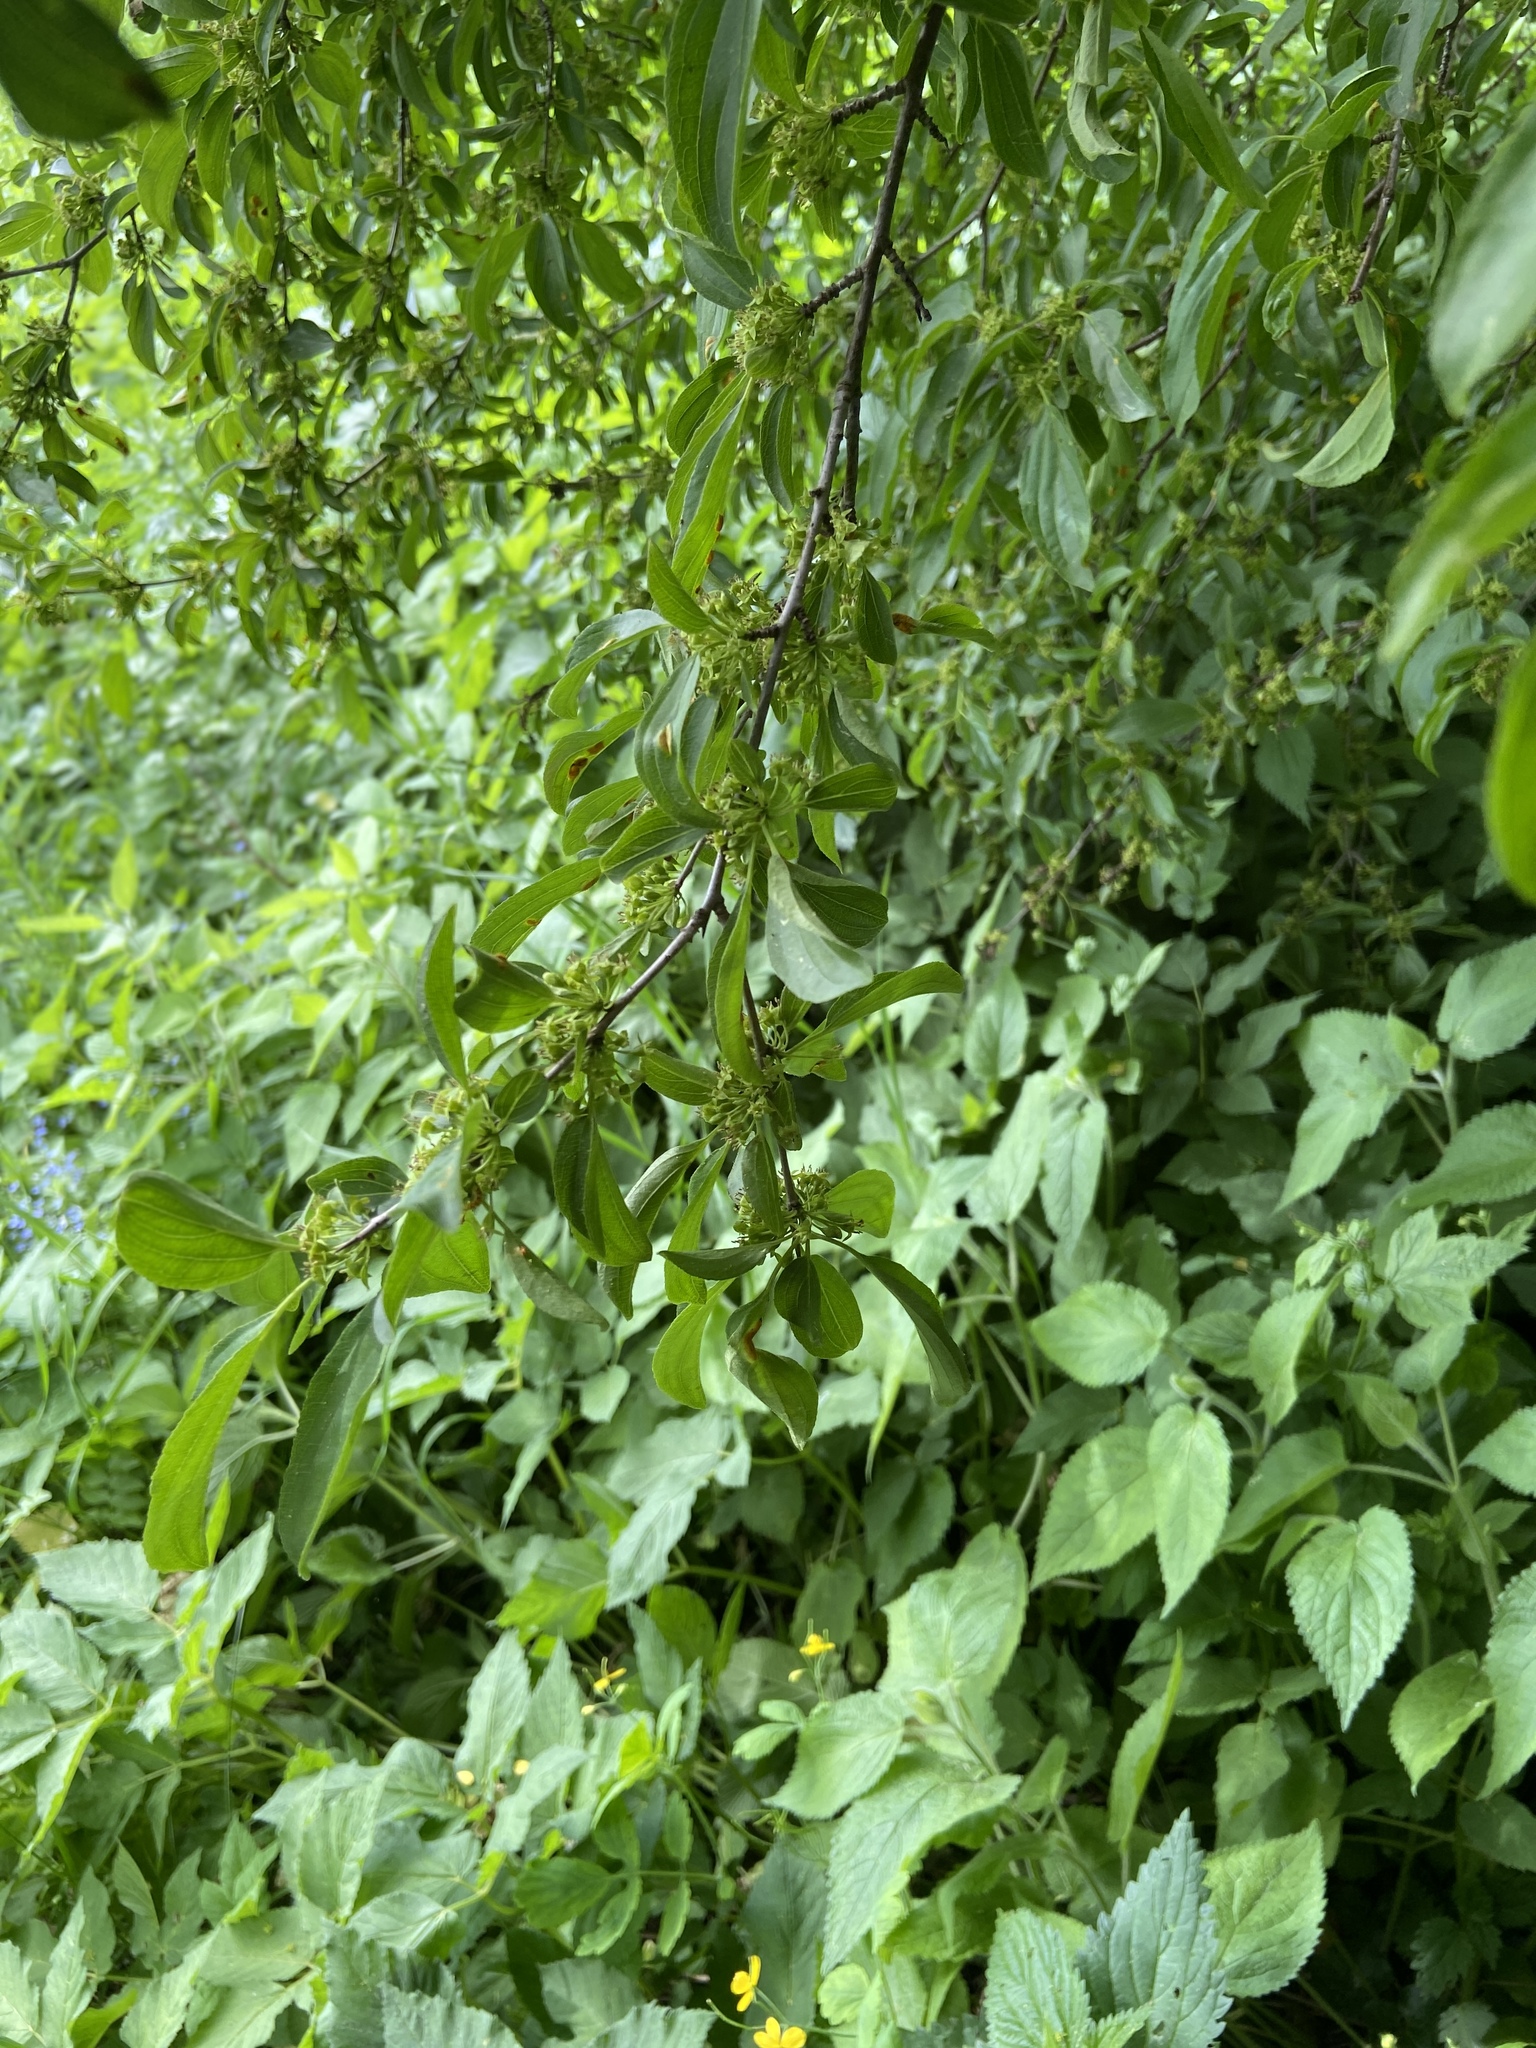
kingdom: Plantae
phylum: Tracheophyta
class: Magnoliopsida
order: Rosales
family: Rhamnaceae
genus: Rhamnus
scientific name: Rhamnus cathartica
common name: Common buckthorn
